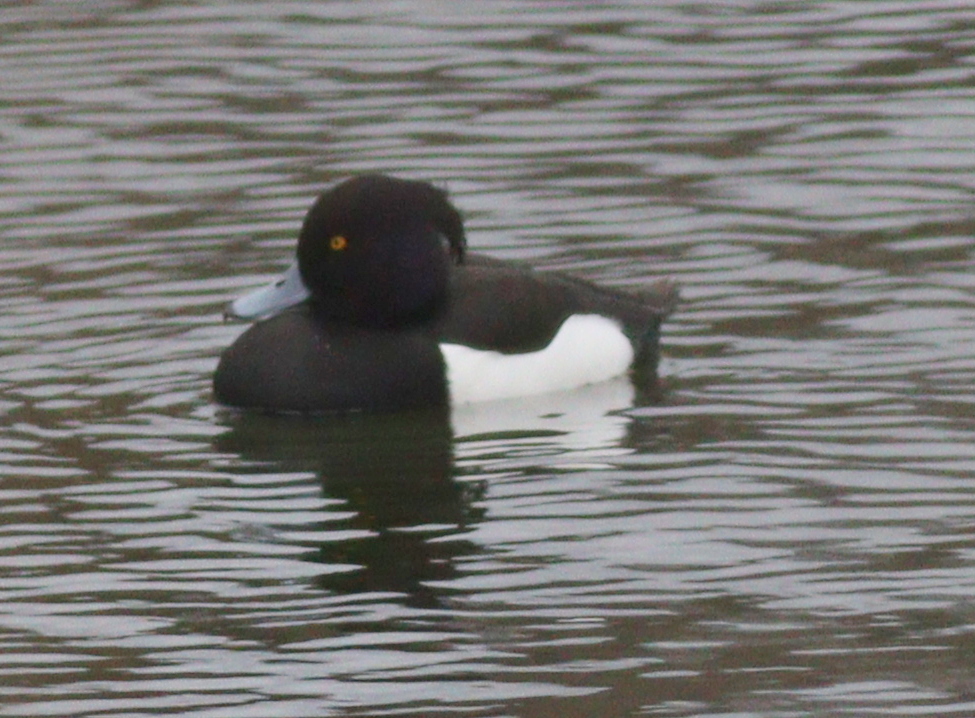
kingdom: Animalia
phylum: Chordata
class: Aves
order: Anseriformes
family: Anatidae
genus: Aythya
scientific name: Aythya fuligula
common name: Tufted duck
